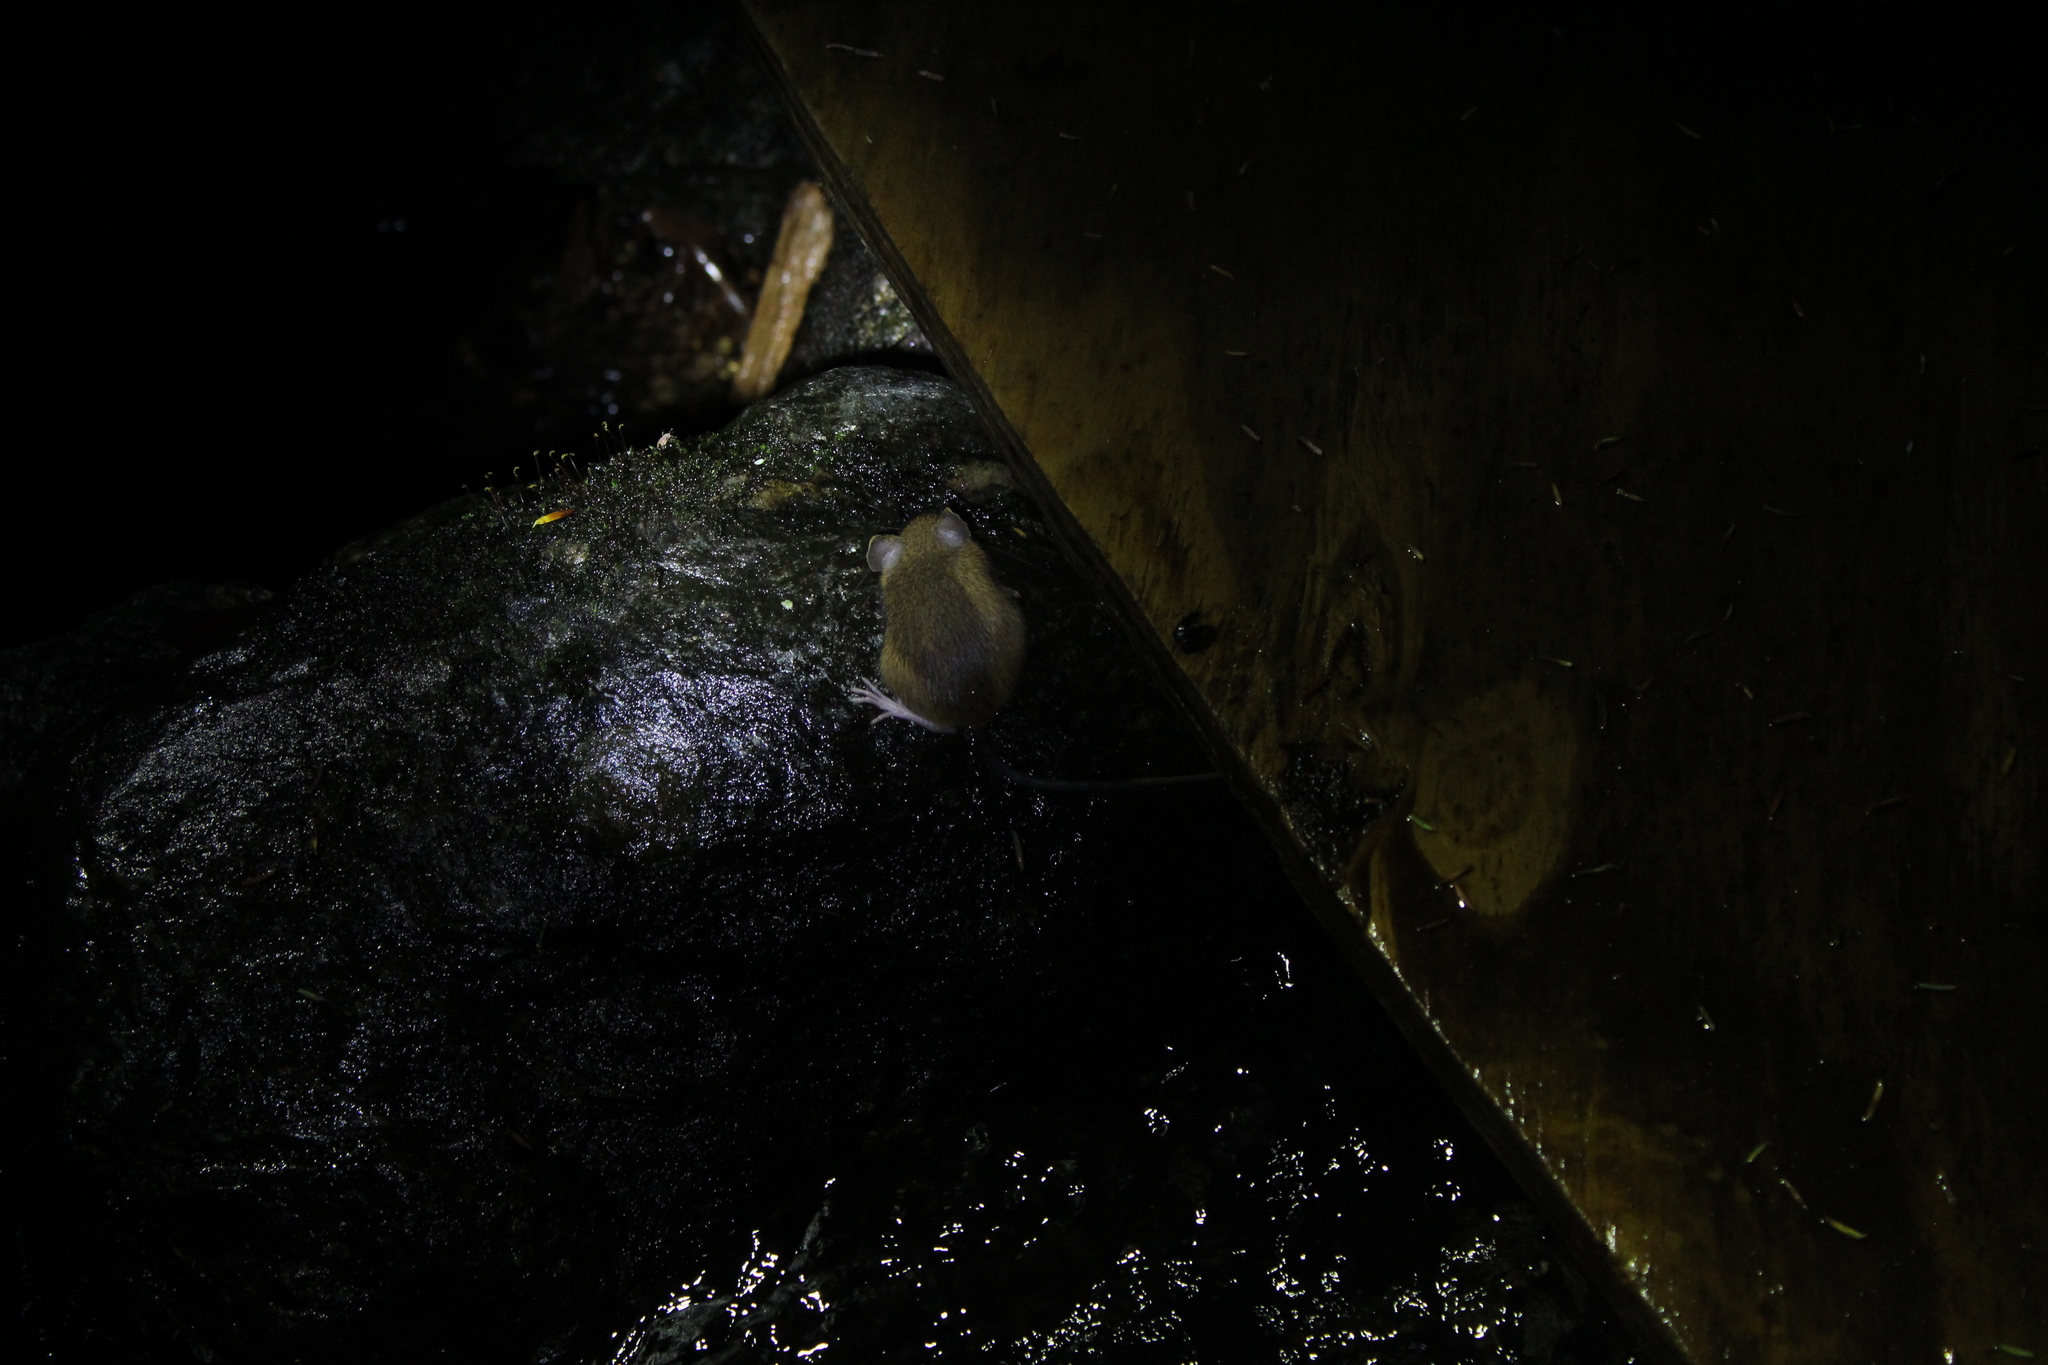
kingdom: Animalia
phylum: Chordata
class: Mammalia
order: Rodentia
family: Dipodidae
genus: Napaeozapus
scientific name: Napaeozapus insignis
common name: Woodland jumping mouse
